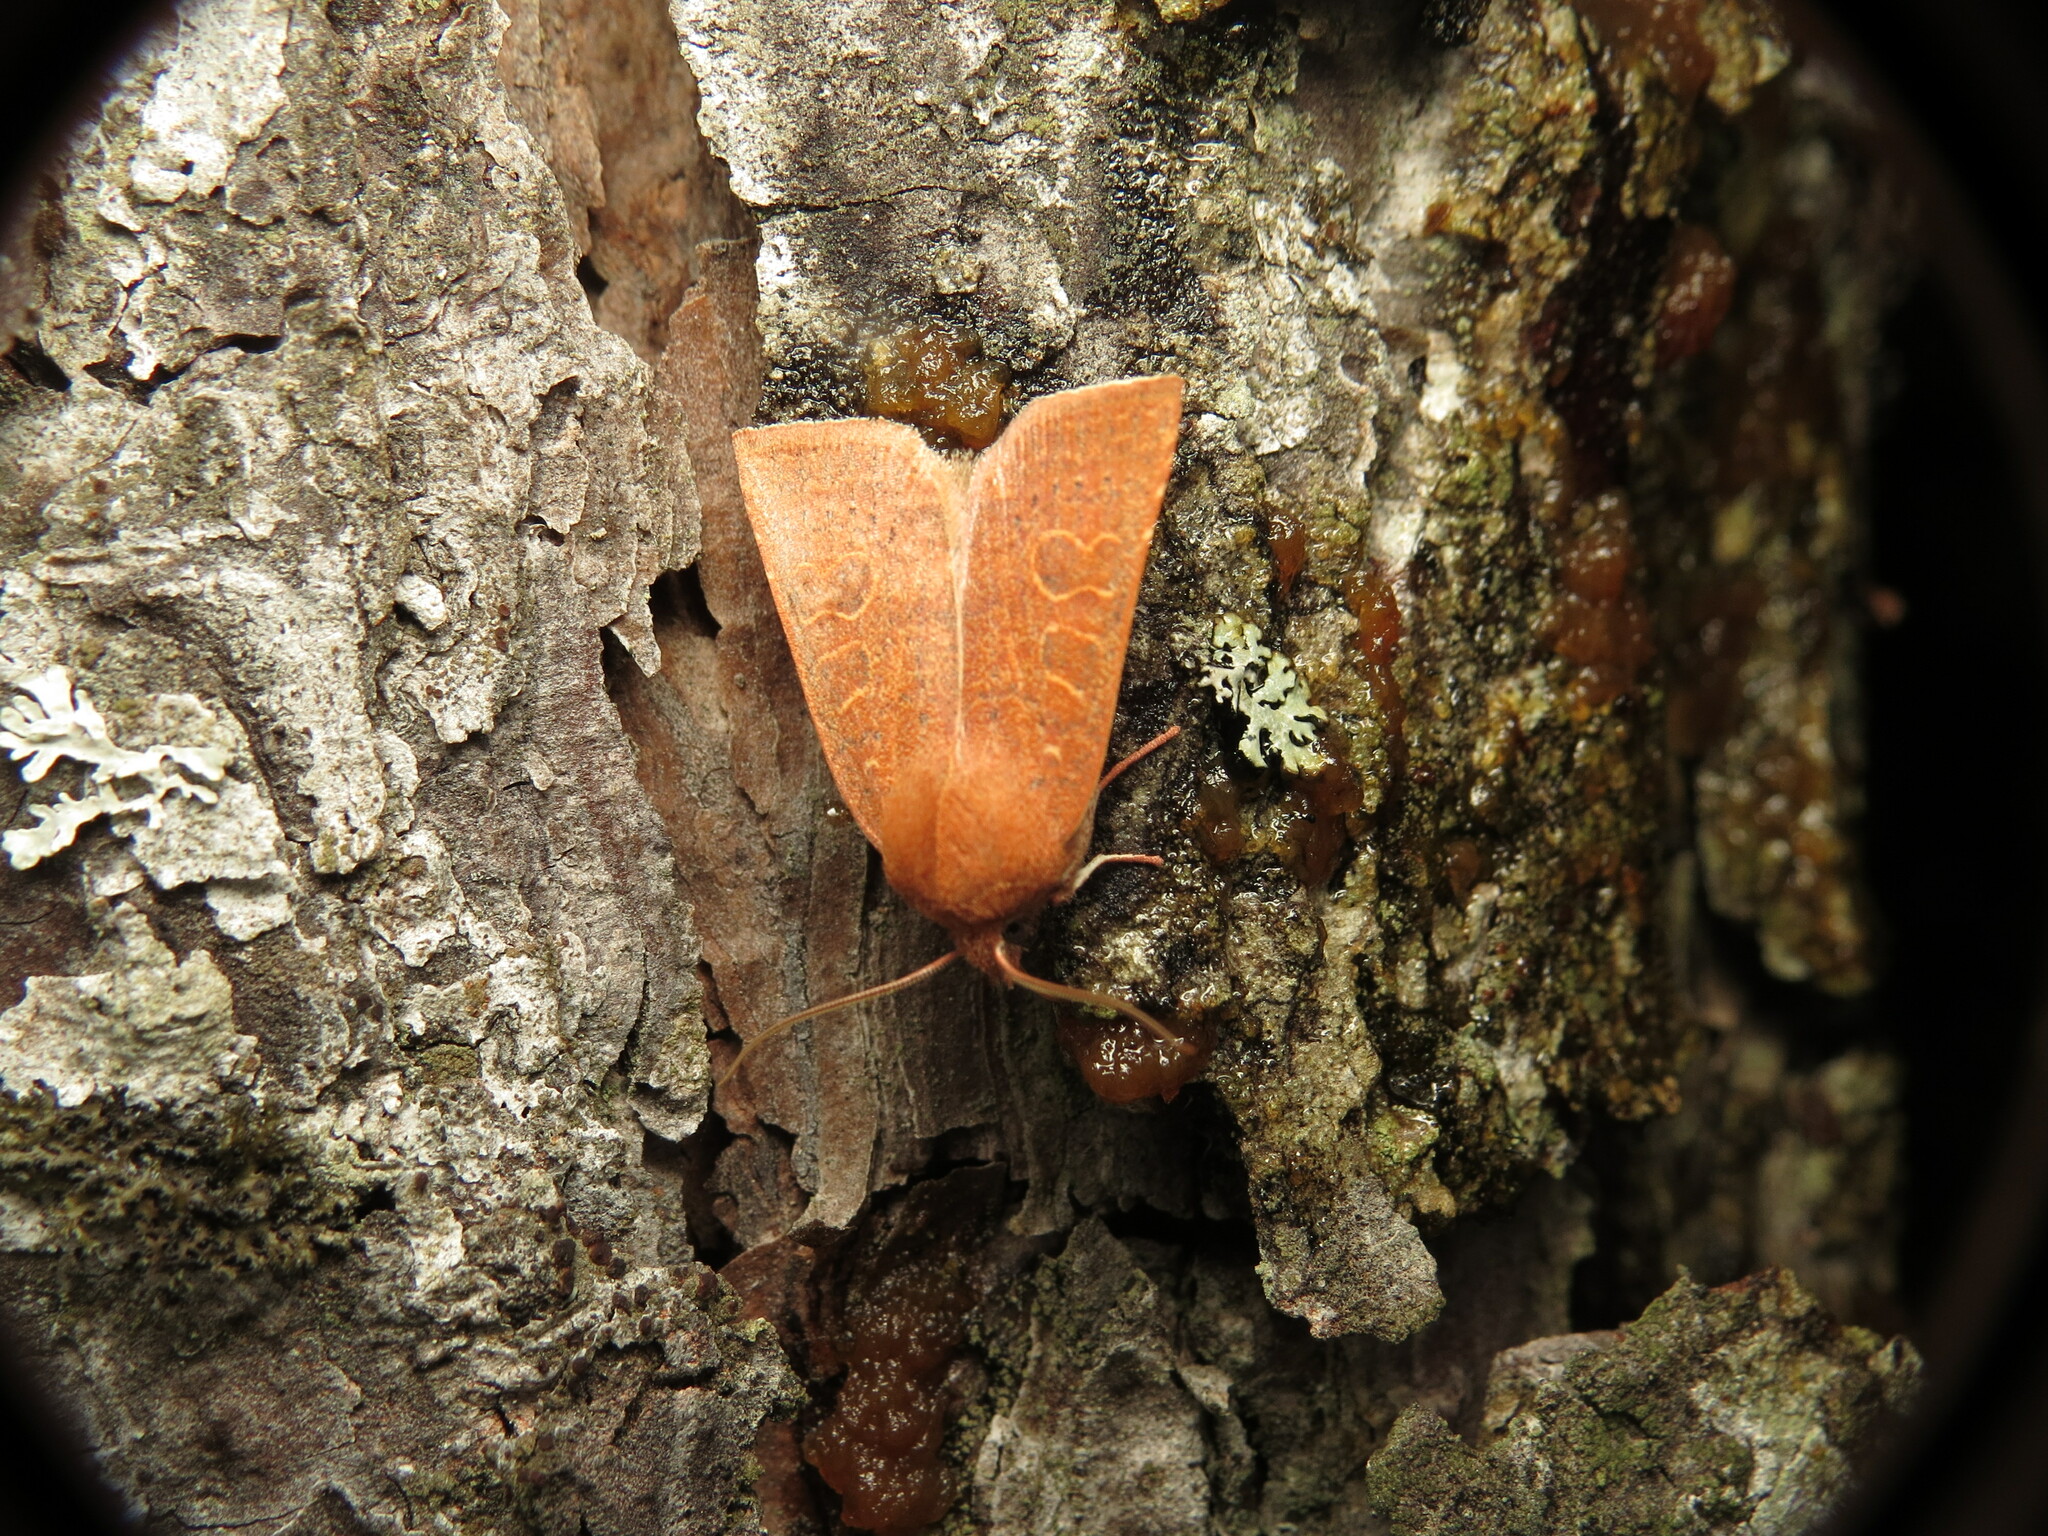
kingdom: Animalia
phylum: Arthropoda
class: Insecta
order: Lepidoptera
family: Noctuidae
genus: Xystopeplus
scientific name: Xystopeplus rufago
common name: Red-winged sallow
